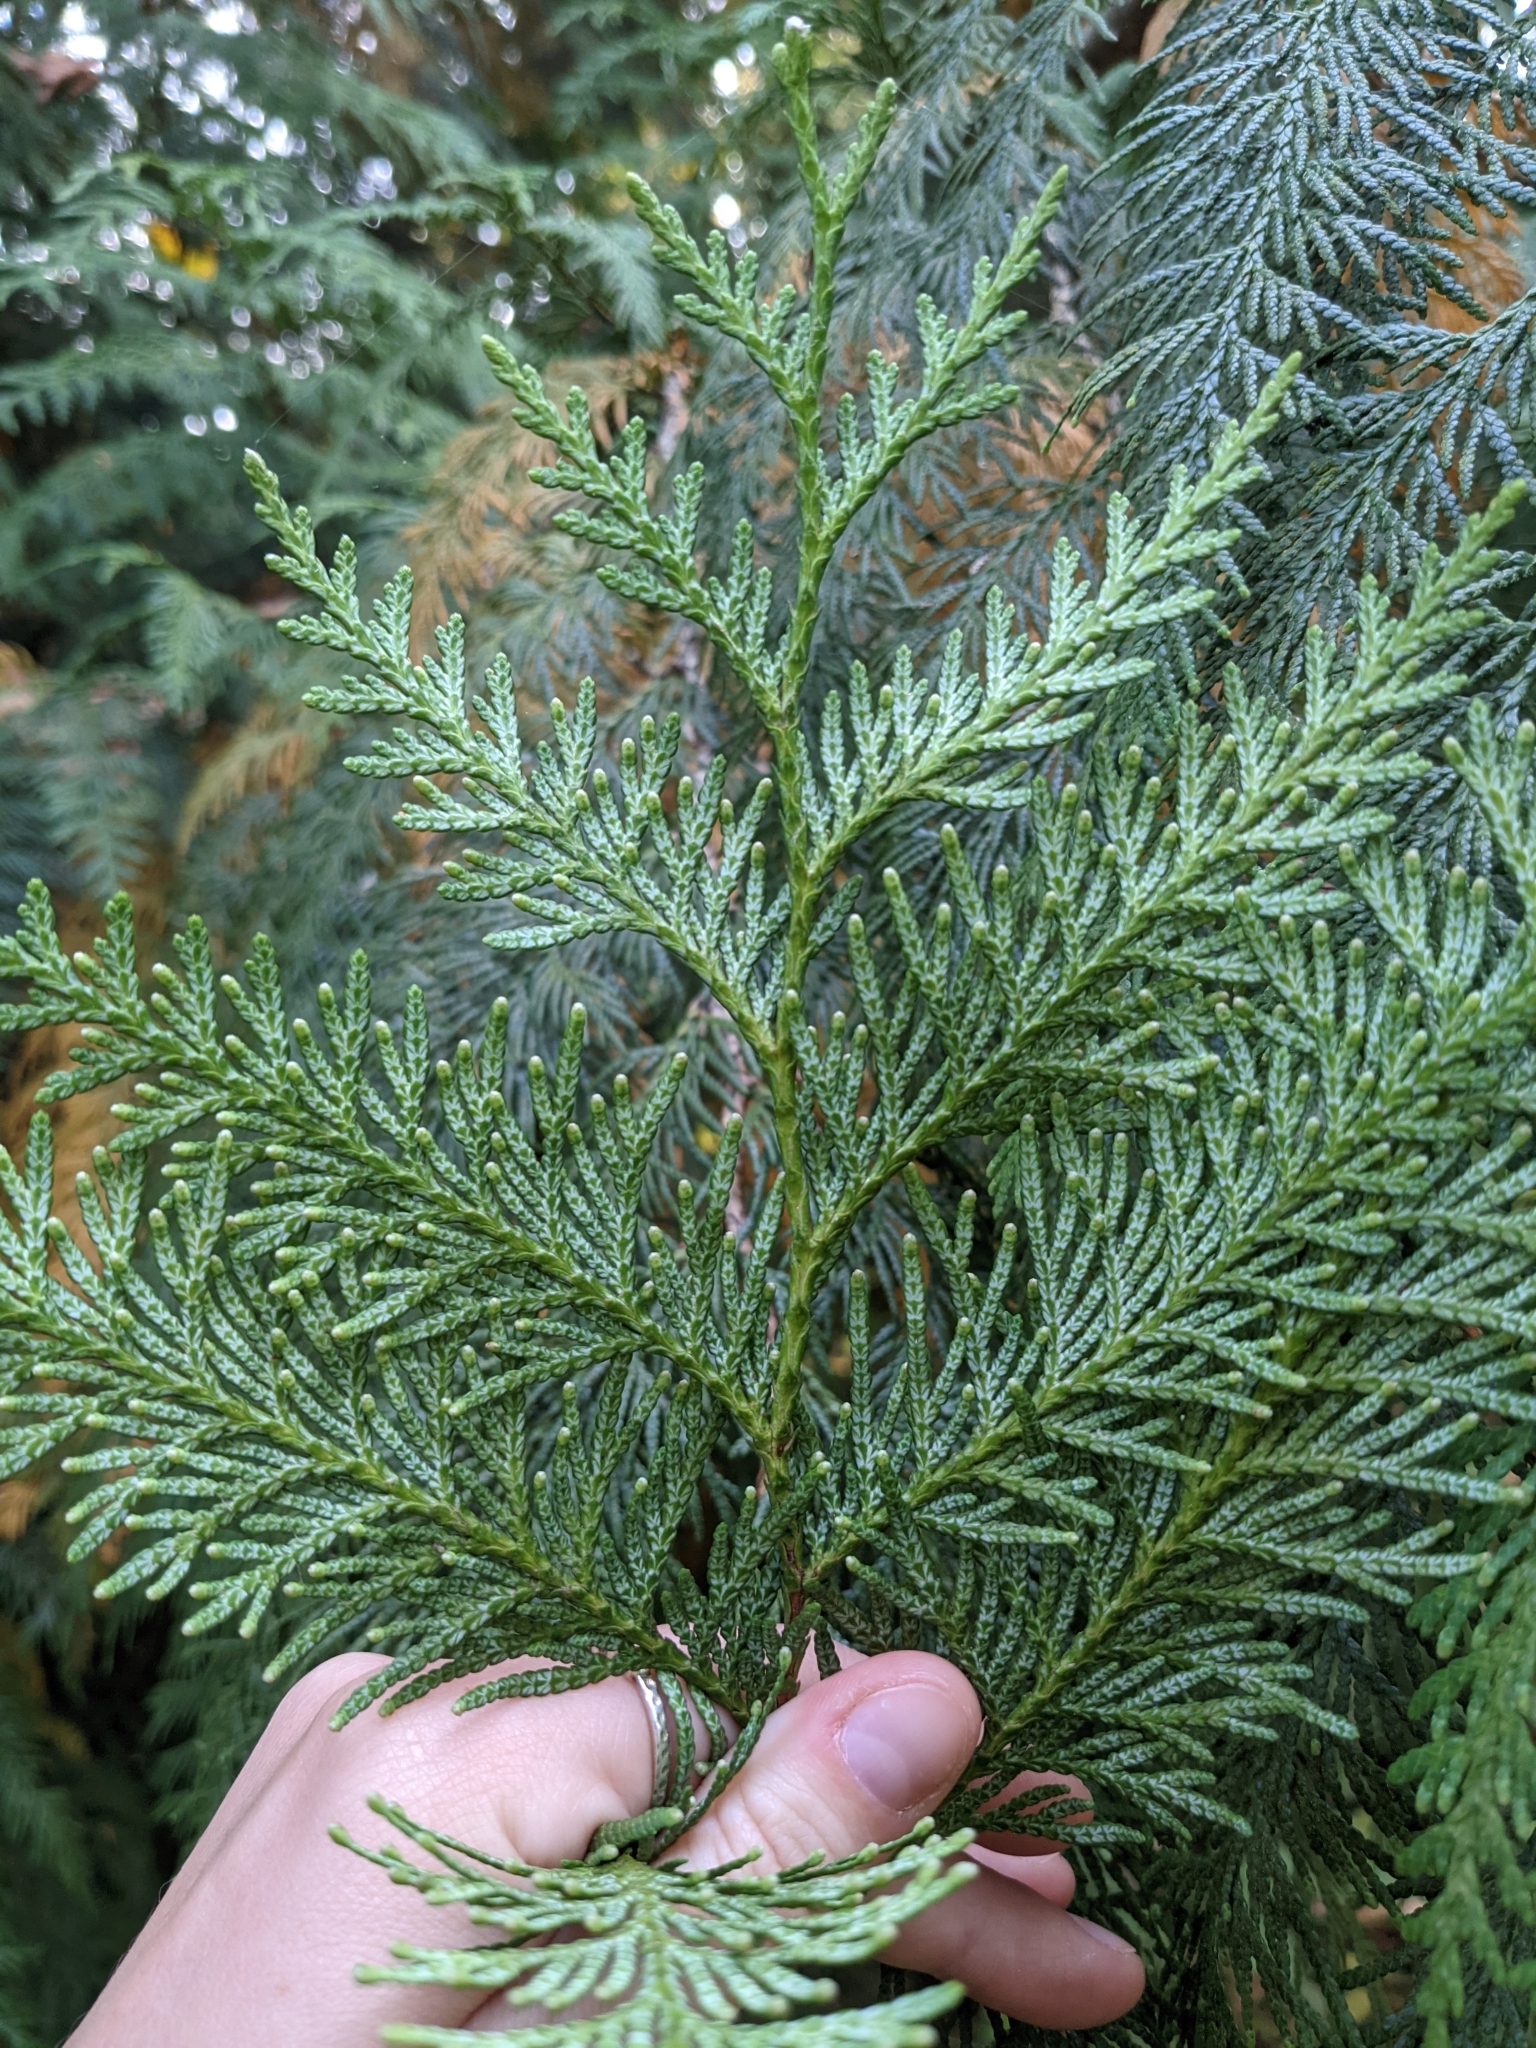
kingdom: Plantae
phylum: Tracheophyta
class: Pinopsida
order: Pinales
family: Cupressaceae
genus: Thuja
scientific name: Thuja plicata
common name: Western red-cedar
